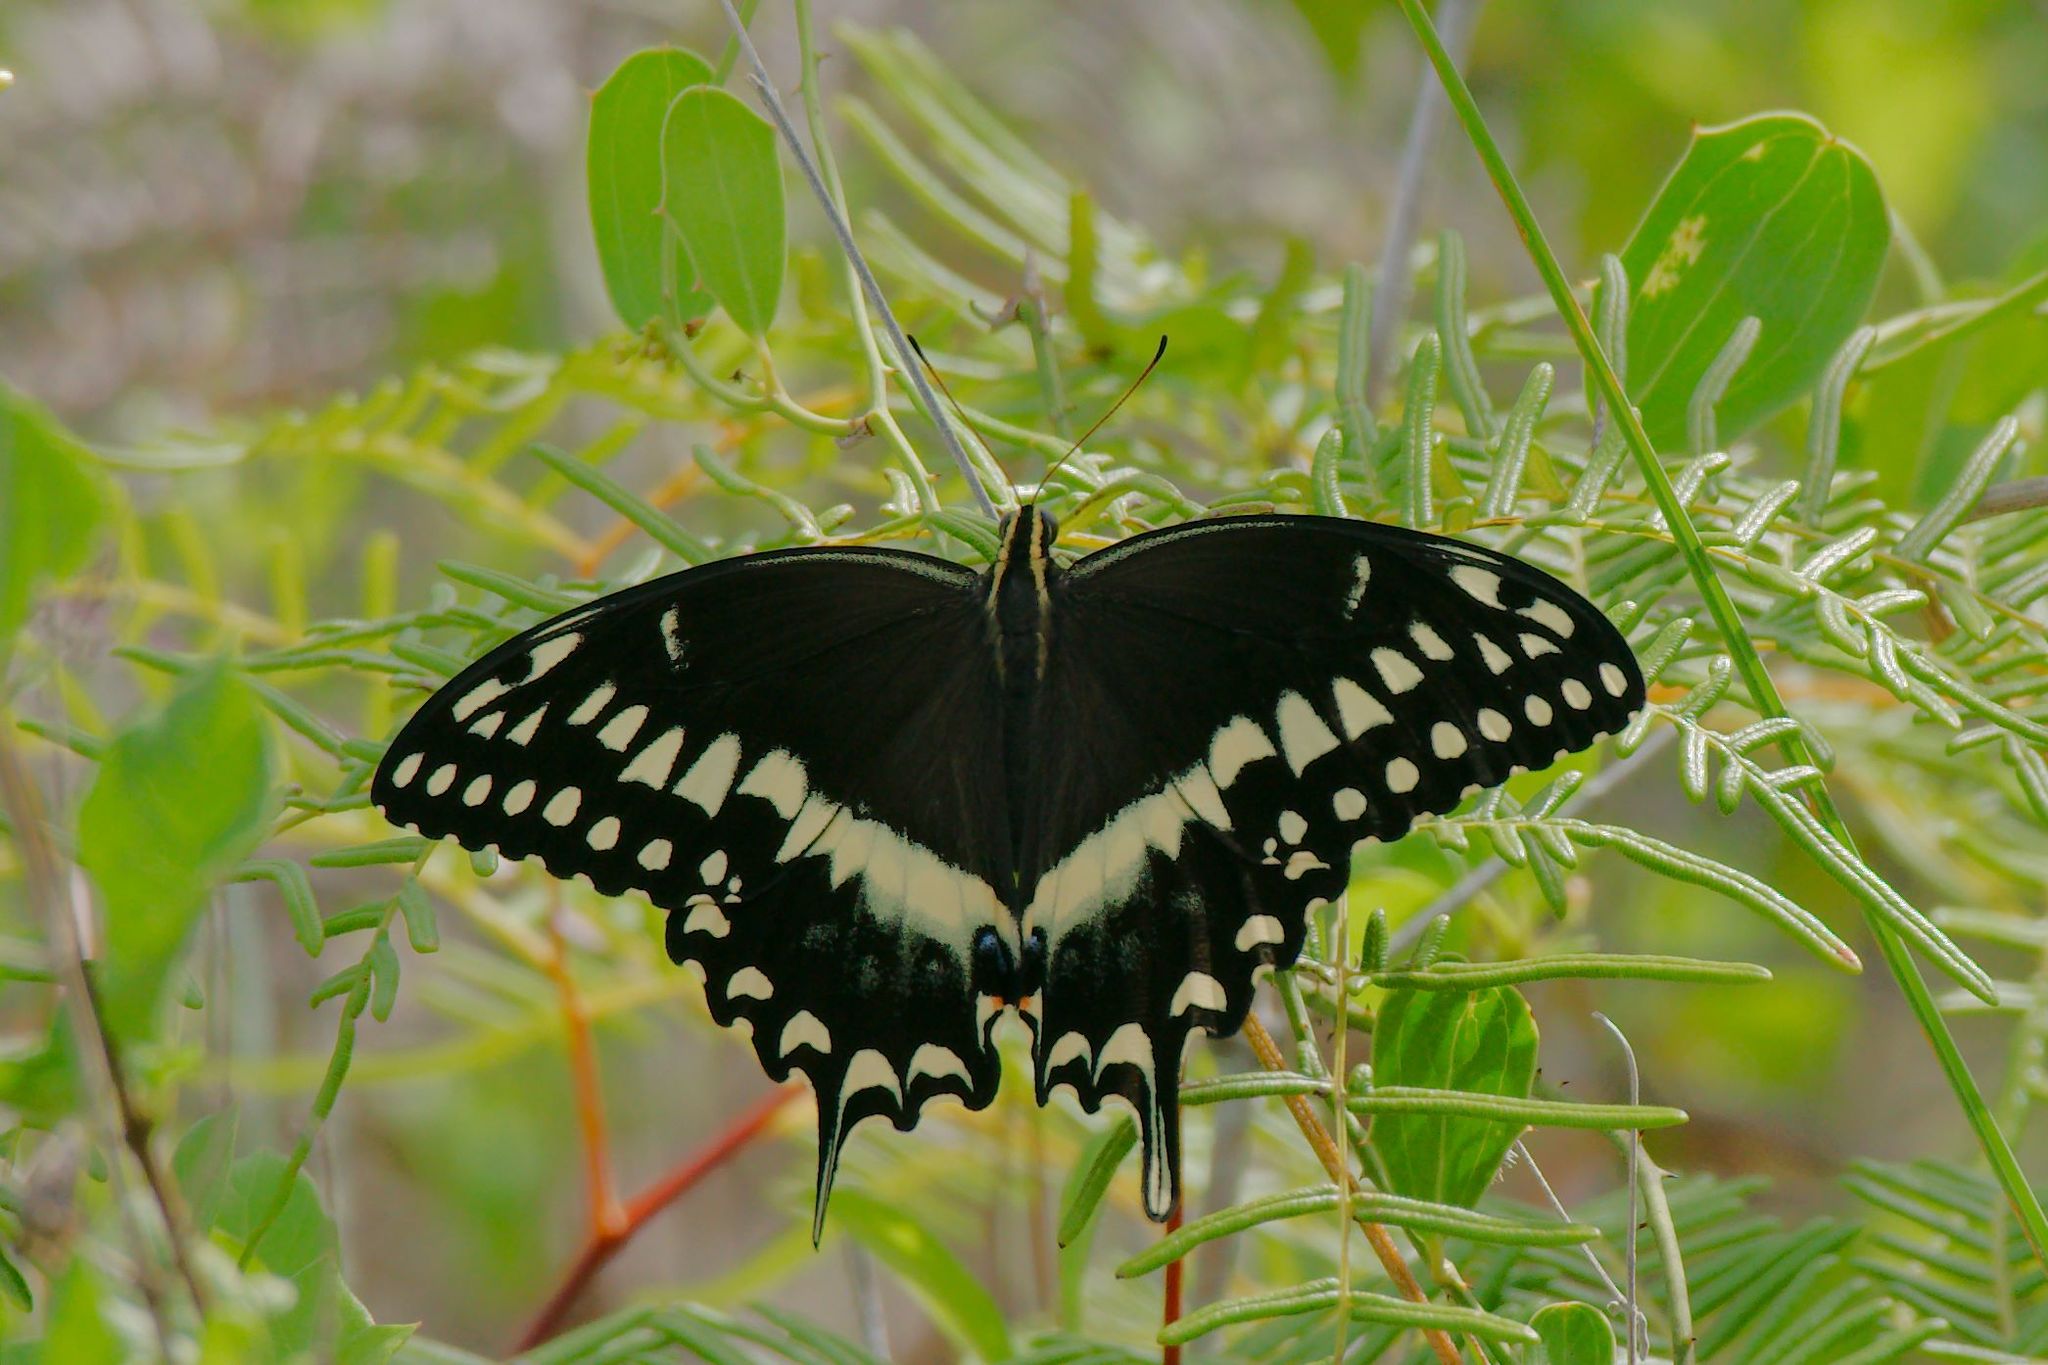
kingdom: Animalia
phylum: Arthropoda
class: Insecta
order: Lepidoptera
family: Papilionidae
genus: Papilio
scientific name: Papilio palamedes
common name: Palamedes swallowtail
